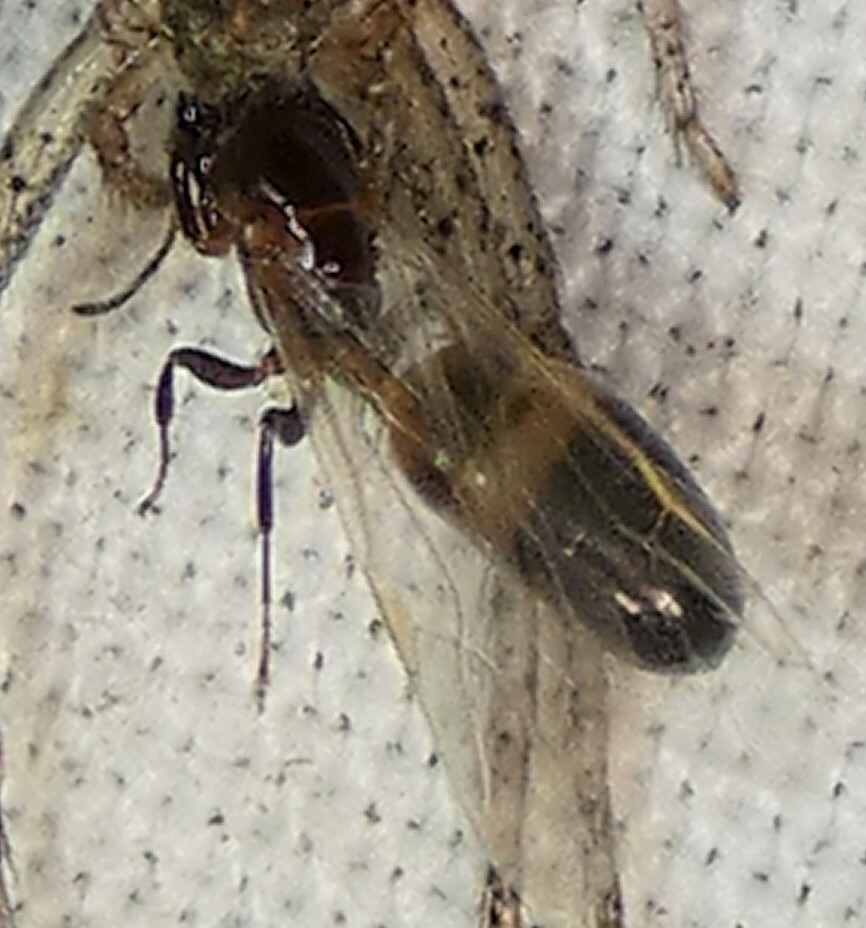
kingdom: Animalia
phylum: Arthropoda
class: Insecta
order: Hymenoptera
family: Formicidae
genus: Colobopsis
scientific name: Colobopsis impressa
